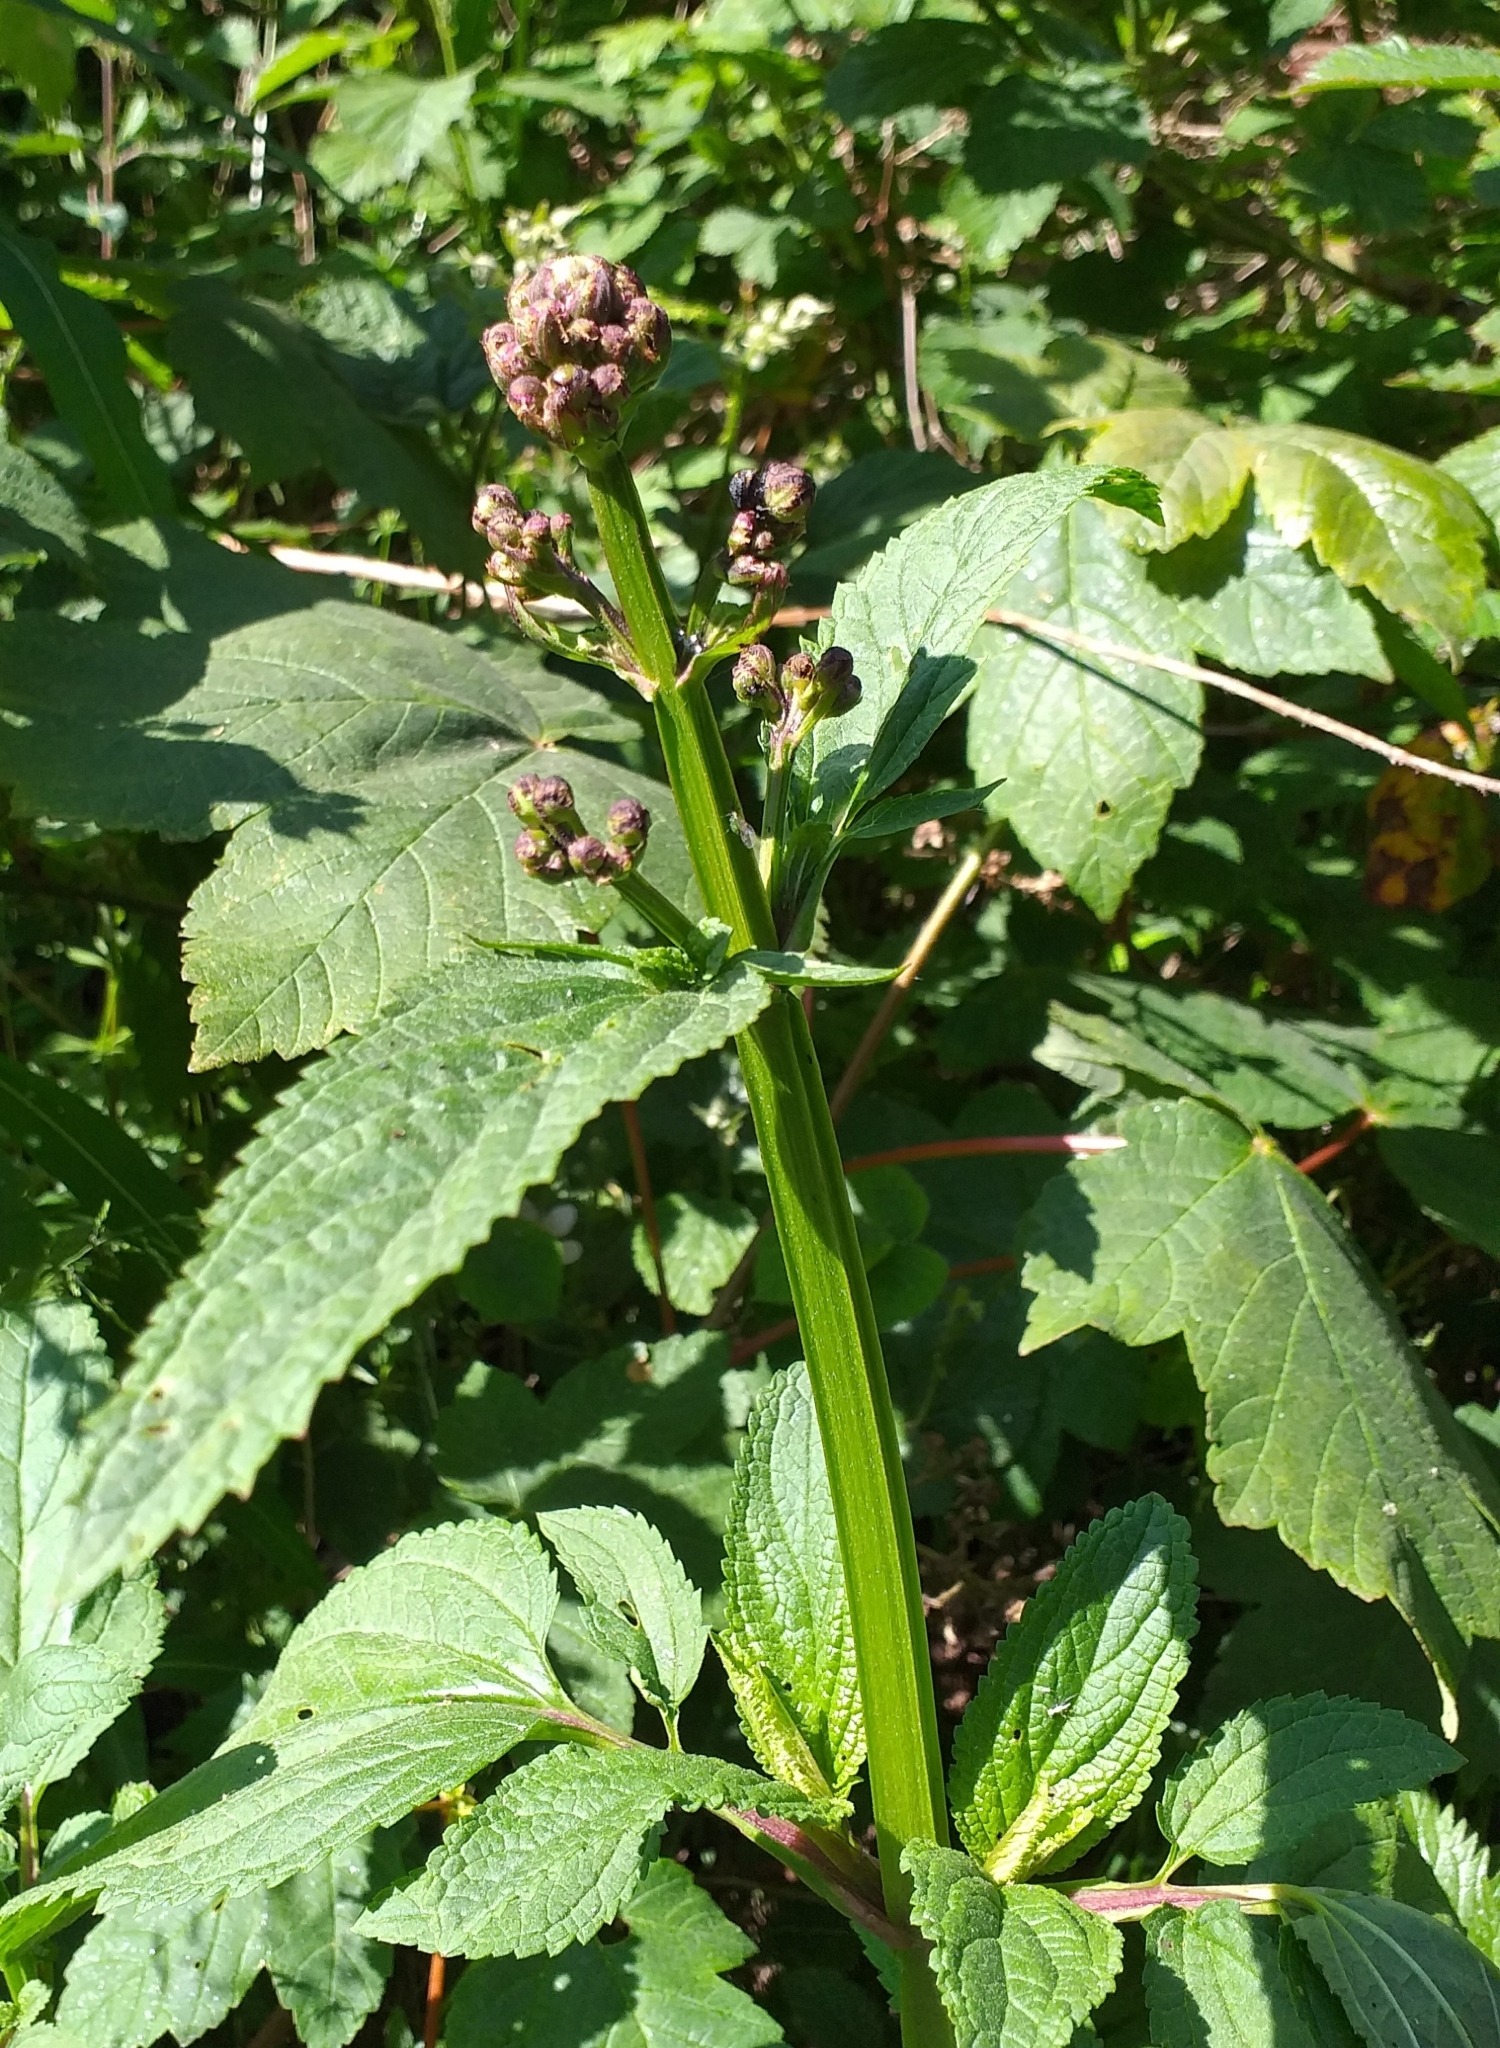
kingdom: Plantae
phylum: Tracheophyta
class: Magnoliopsida
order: Lamiales
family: Scrophulariaceae
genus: Scrophularia
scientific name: Scrophularia auriculata
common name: Water betony
